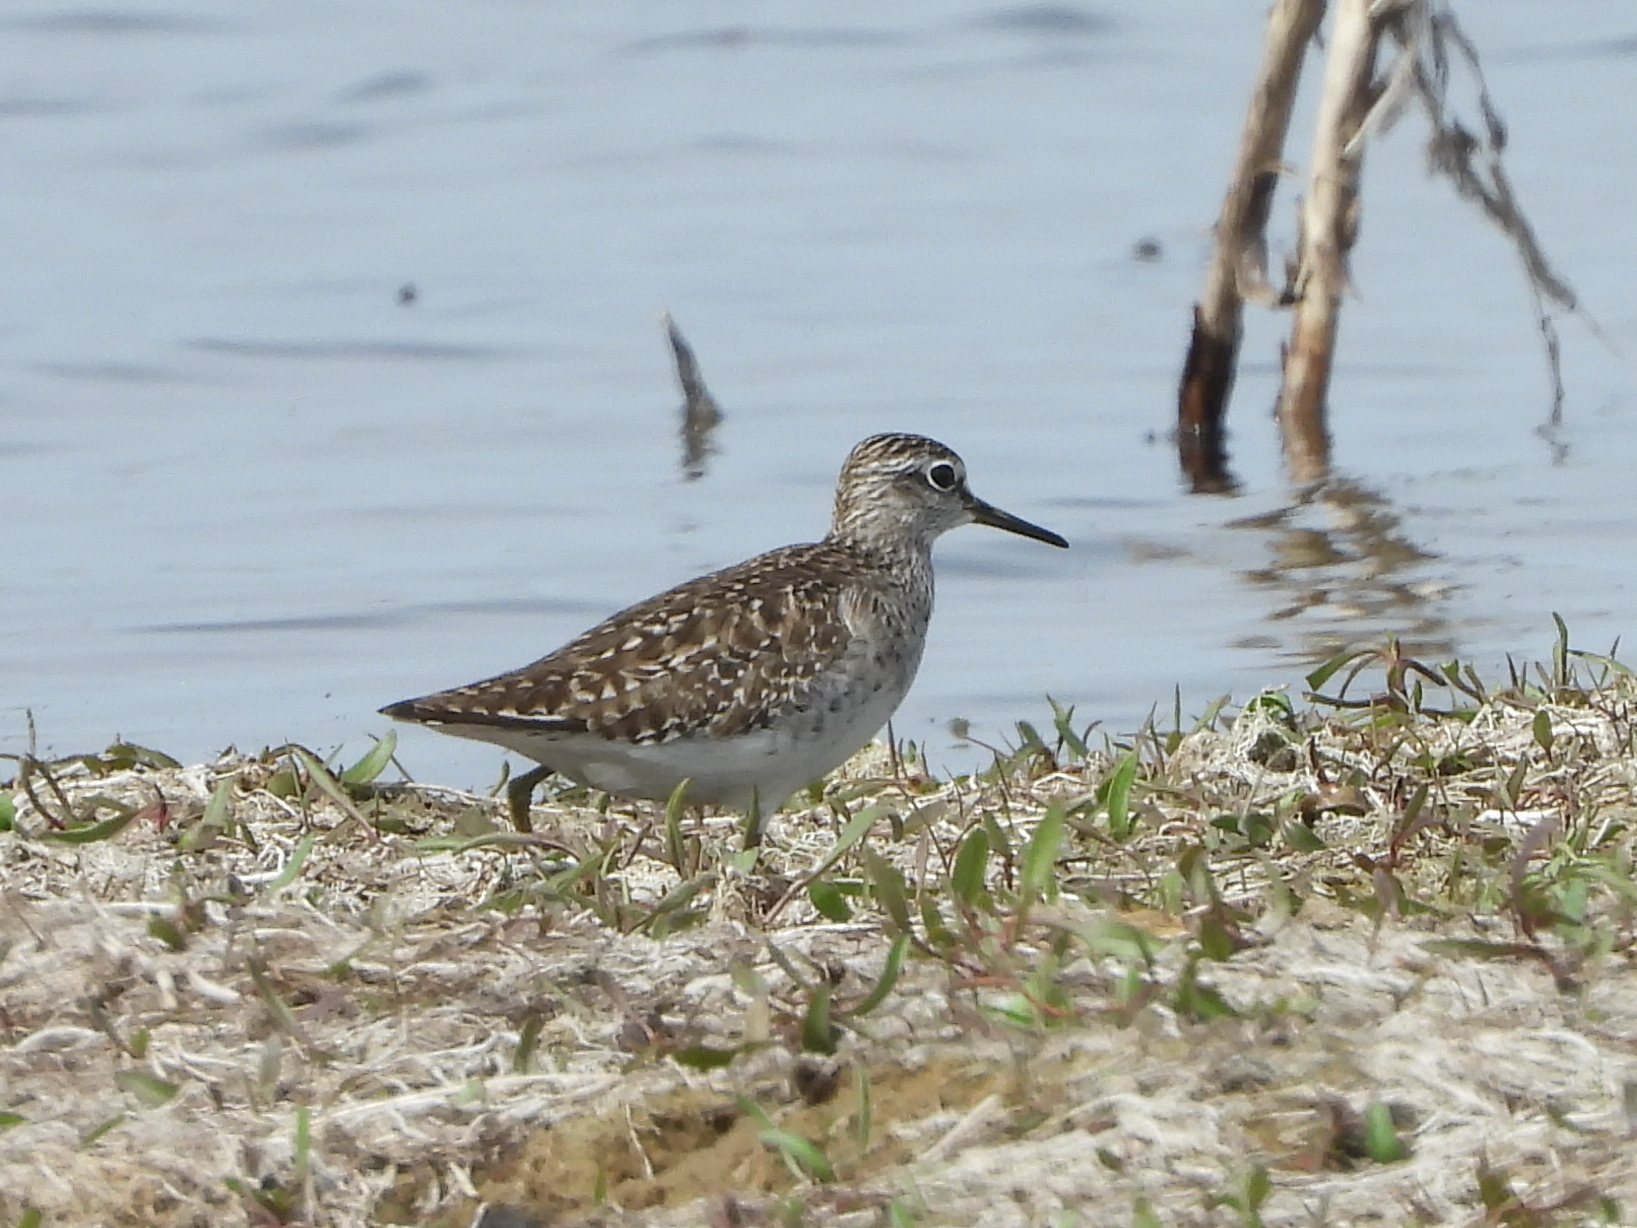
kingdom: Animalia
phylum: Chordata
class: Aves
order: Charadriiformes
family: Scolopacidae
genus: Tringa
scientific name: Tringa glareola
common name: Wood sandpiper
